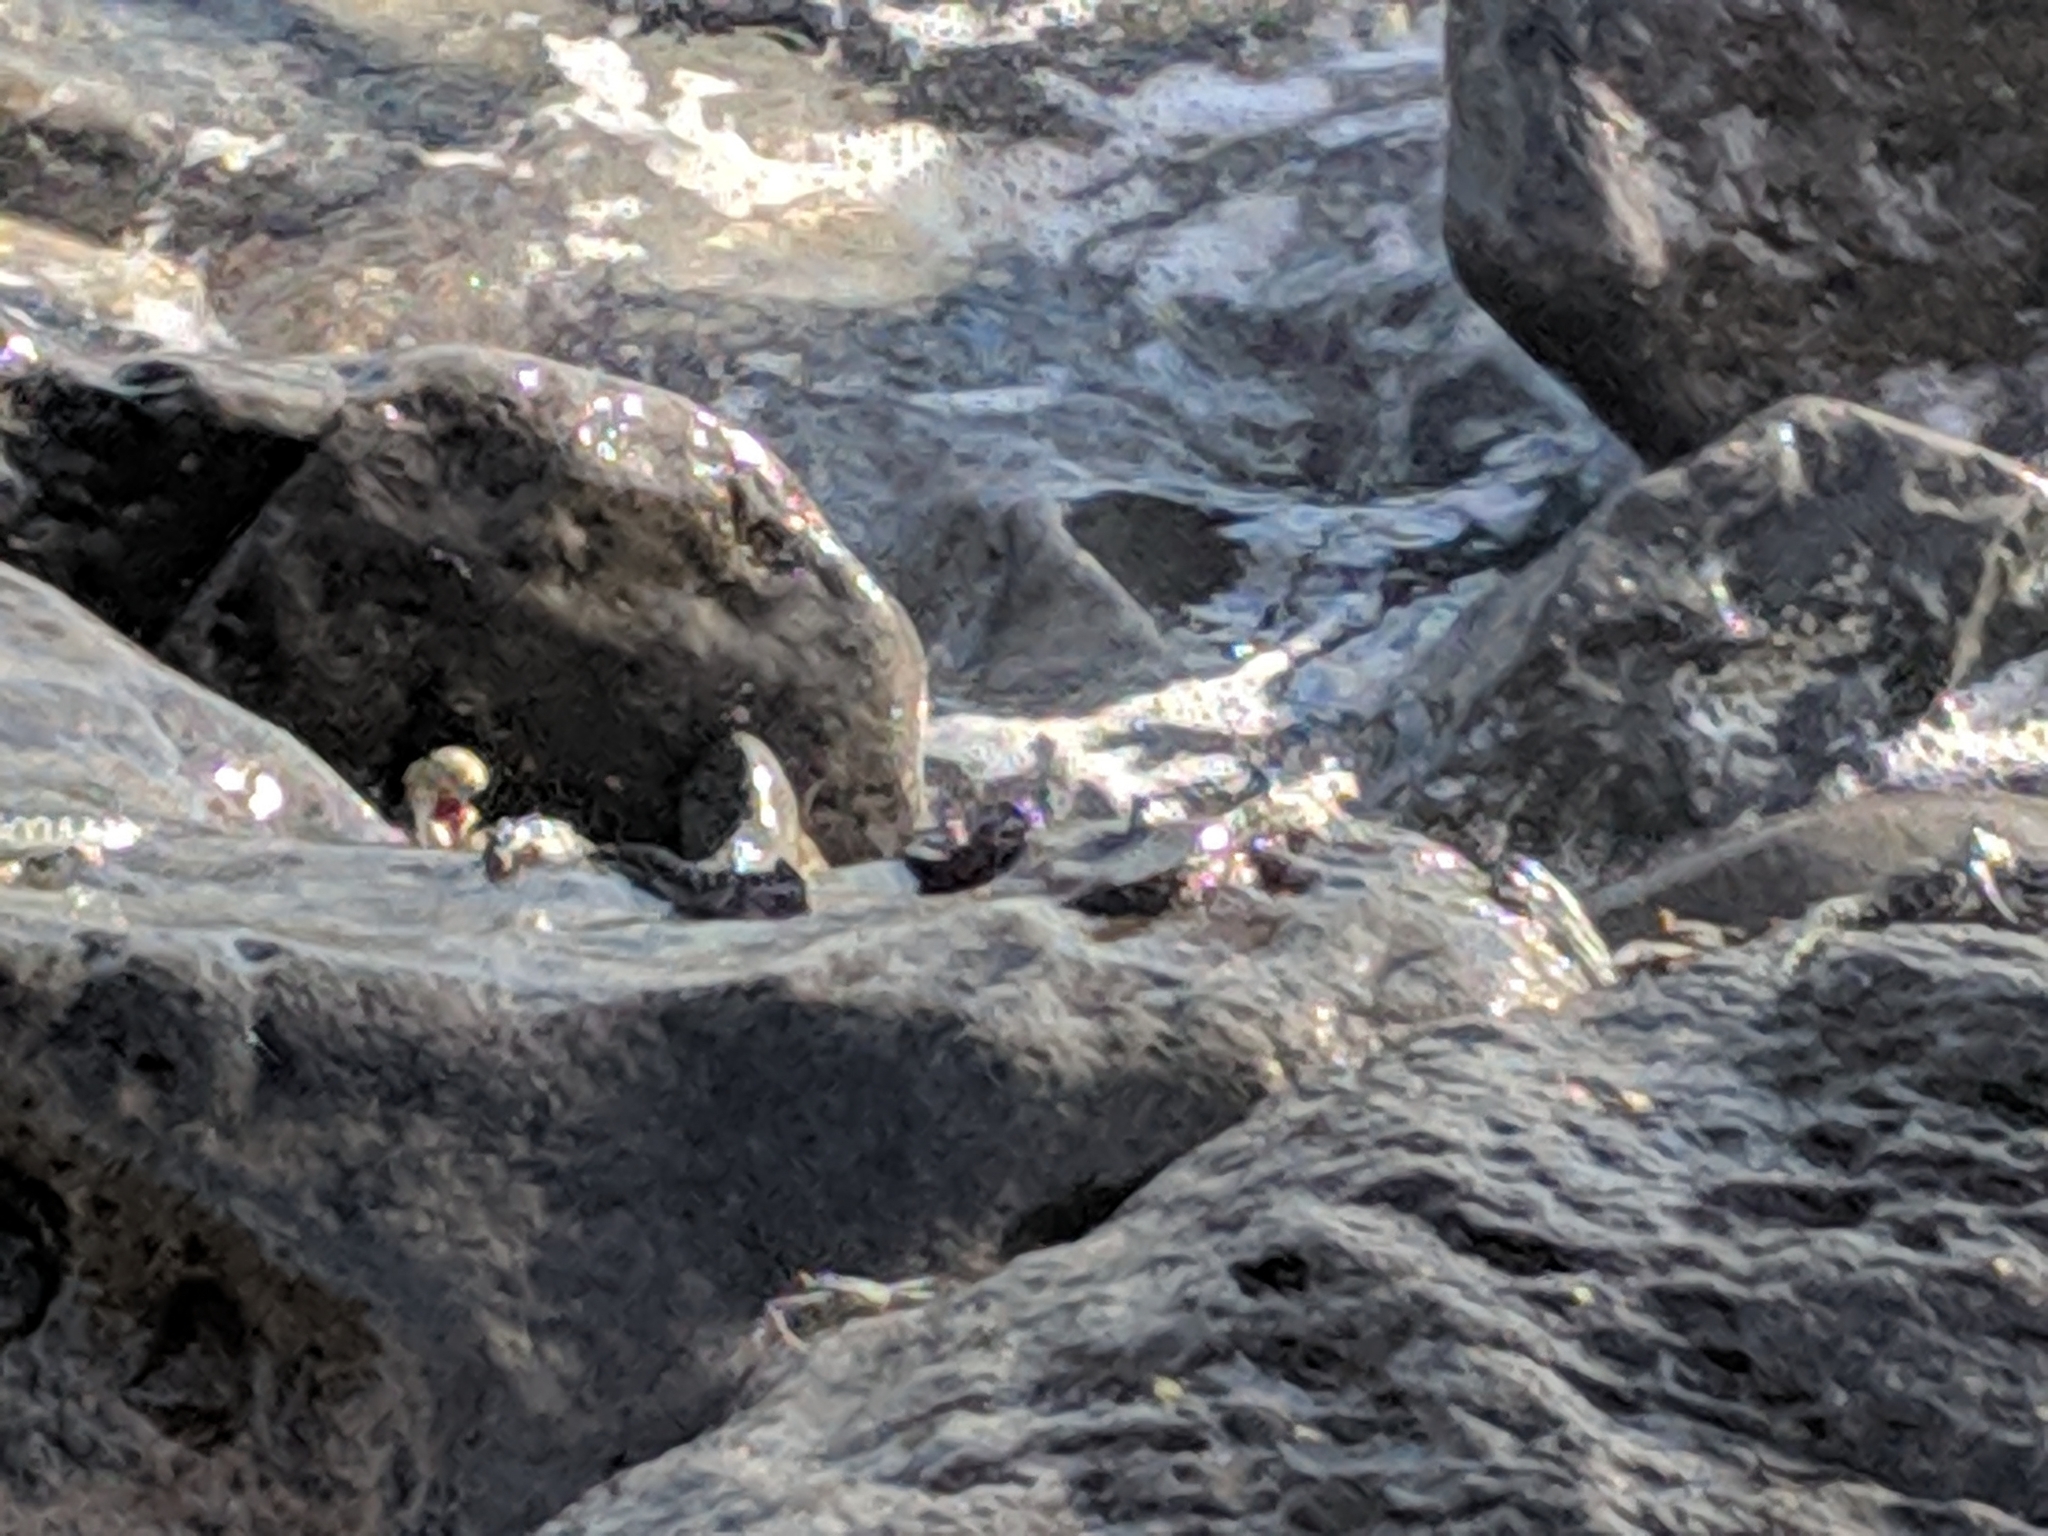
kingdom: Animalia
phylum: Chordata
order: Perciformes
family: Blenniidae
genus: Alticus
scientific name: Alticus monochrus
